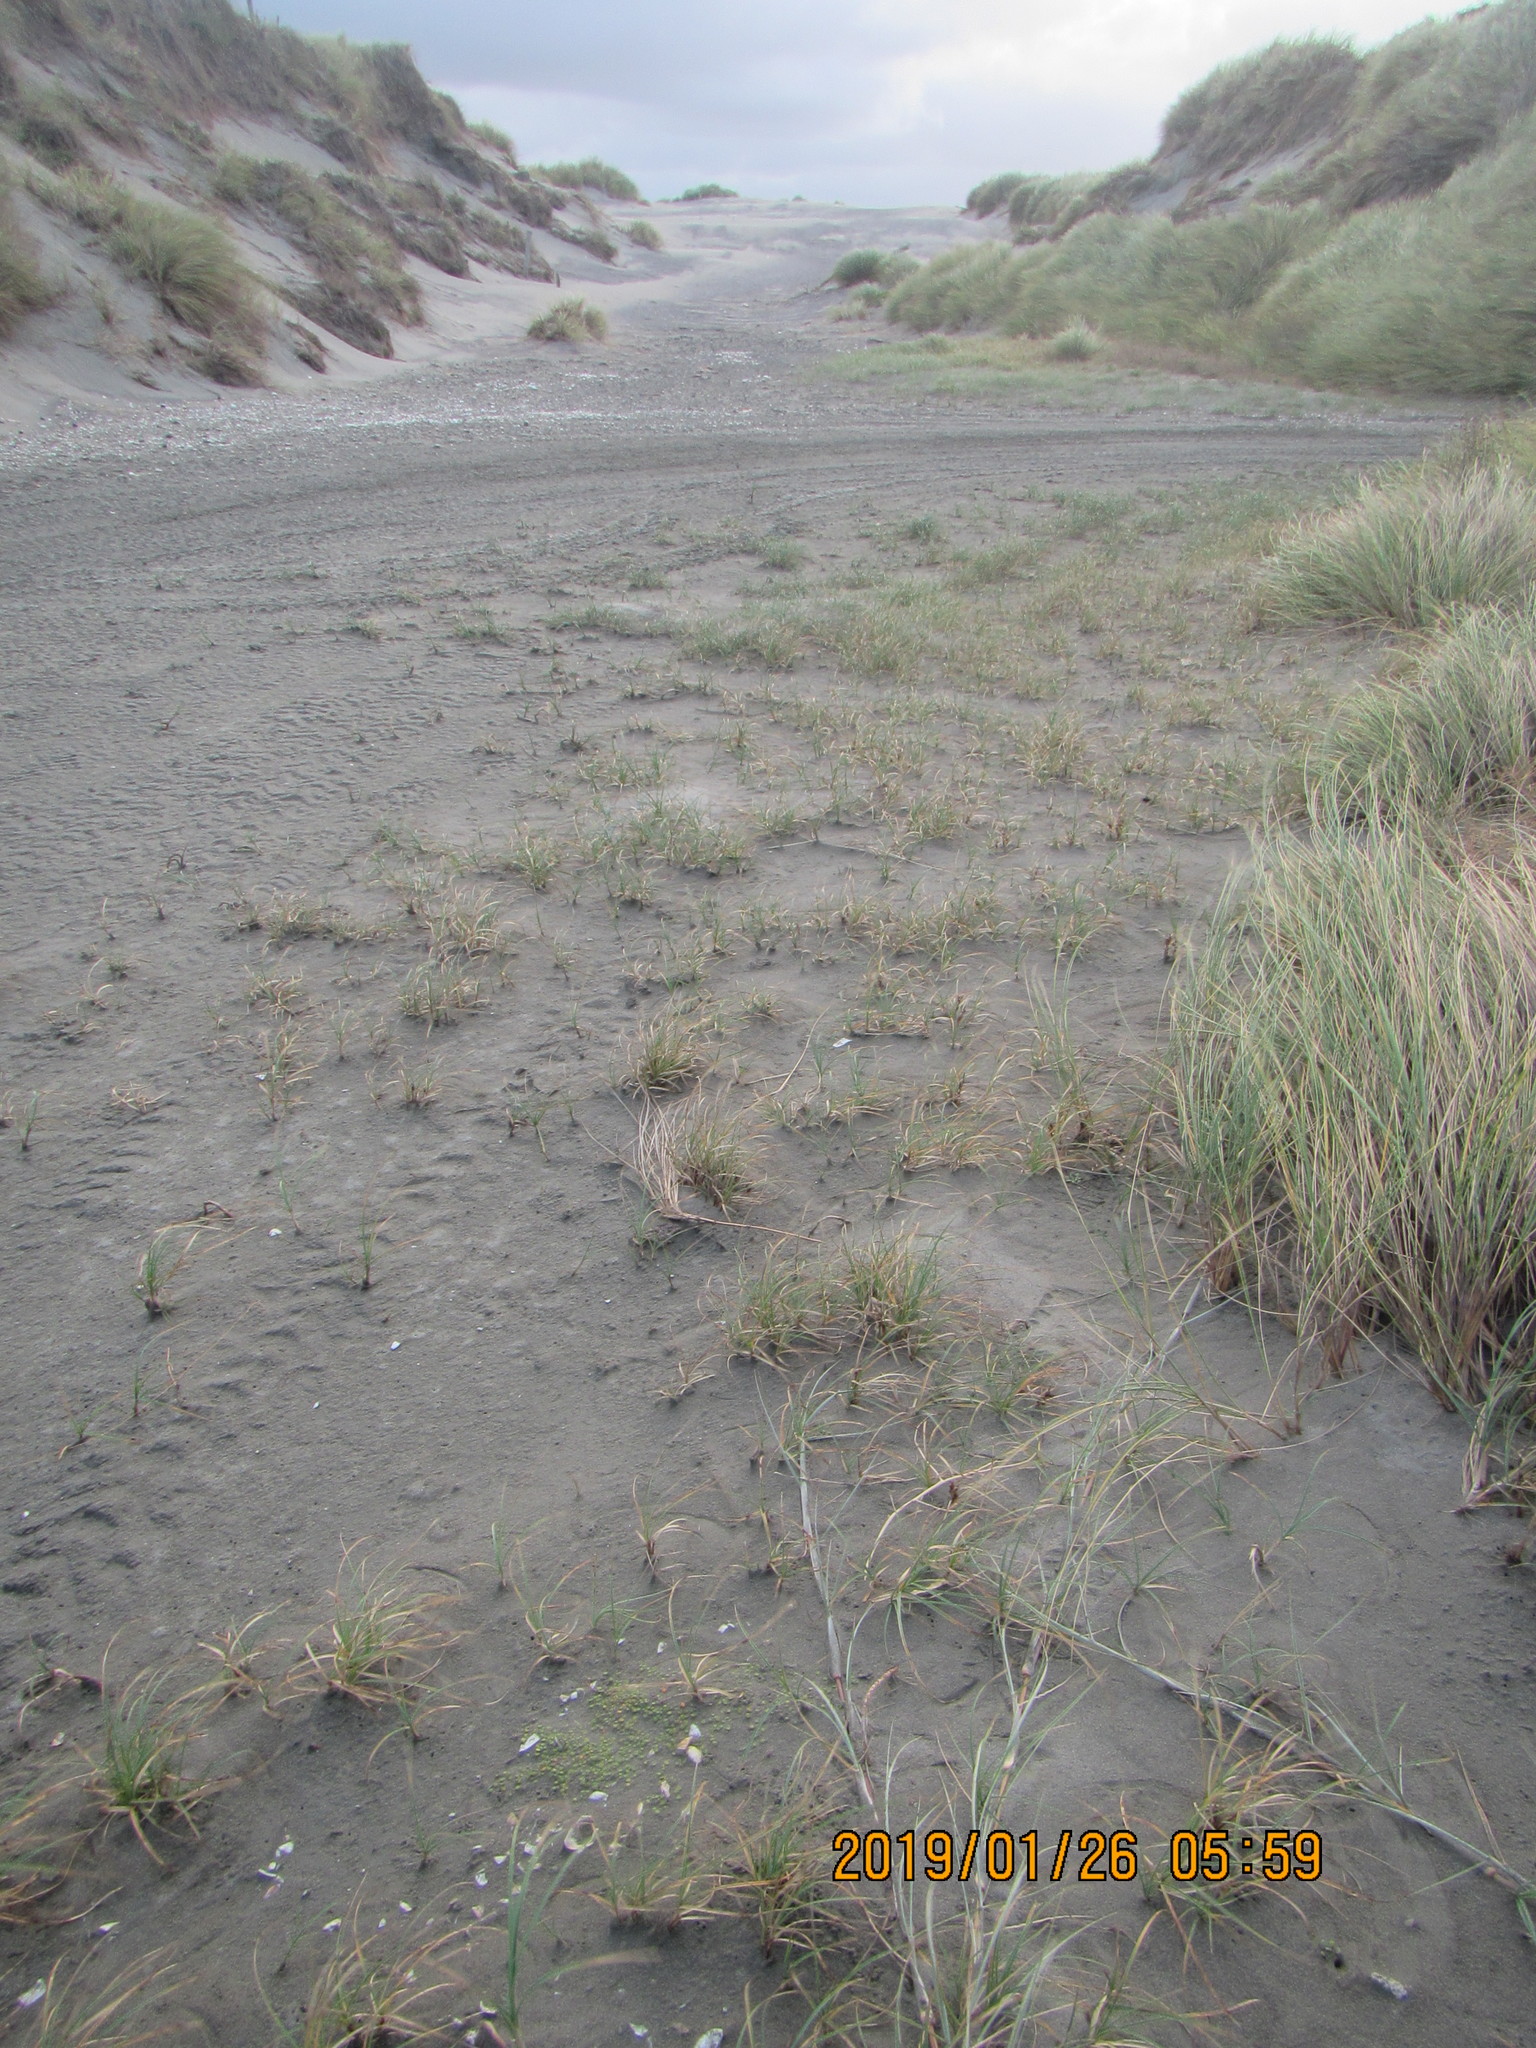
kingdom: Plantae
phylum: Tracheophyta
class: Liliopsida
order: Poales
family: Cyperaceae
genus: Carex
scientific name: Carex pumila
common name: Dwarf sedge
